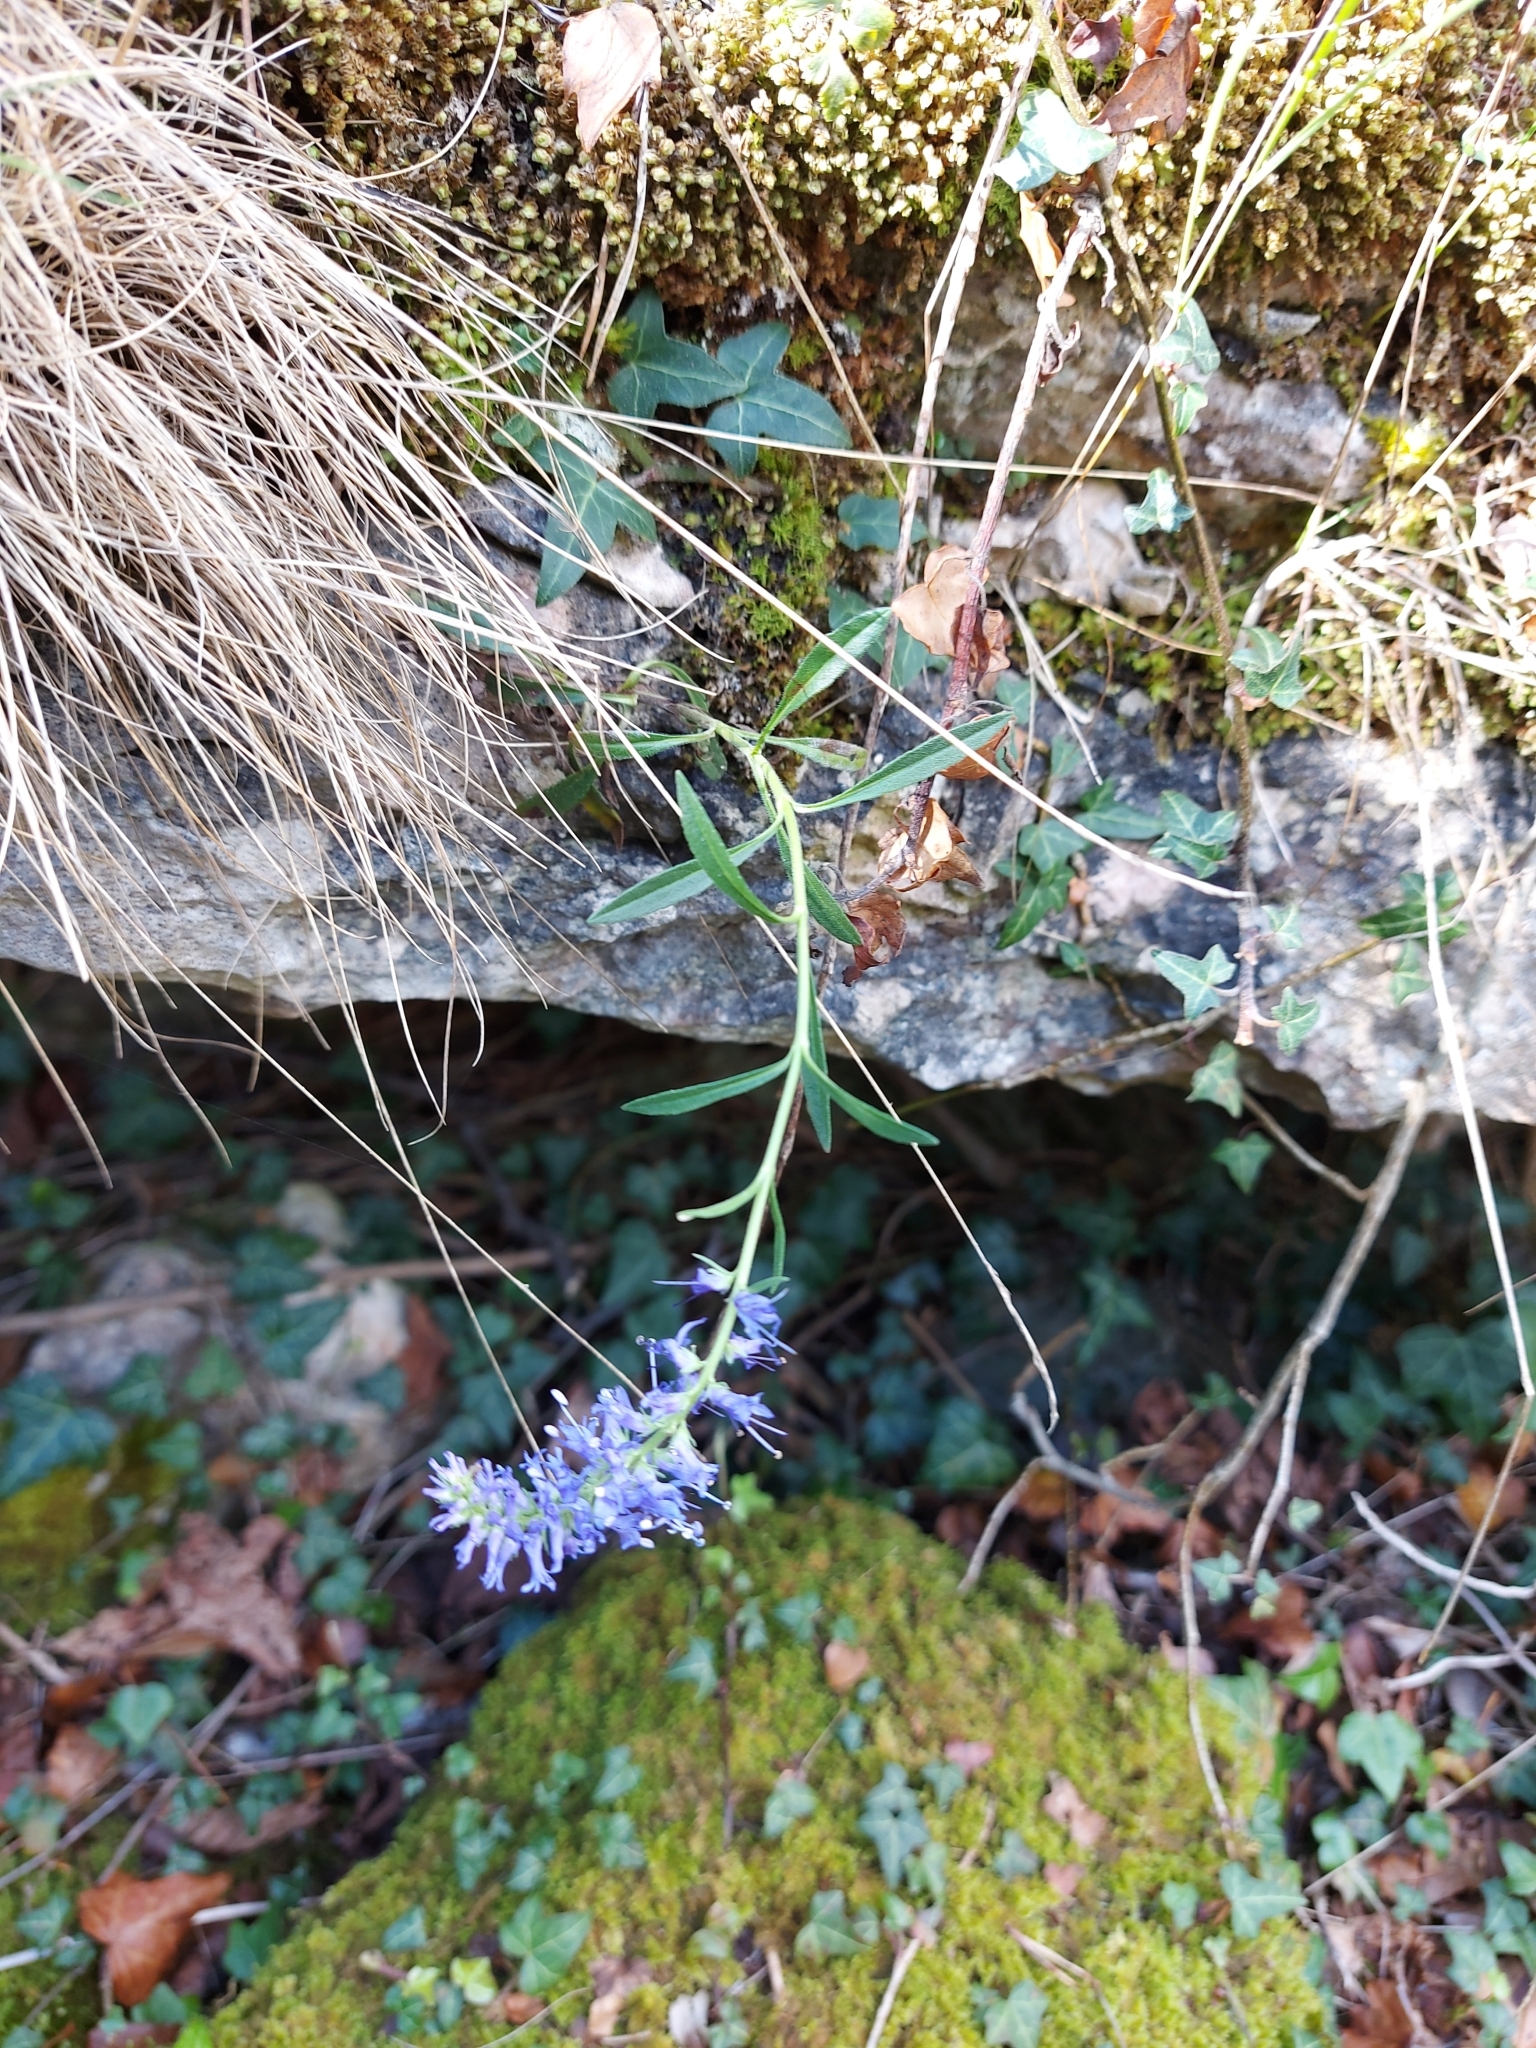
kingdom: Plantae
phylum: Tracheophyta
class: Magnoliopsida
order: Lamiales
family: Plantaginaceae
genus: Veronica
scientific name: Veronica spicata
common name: Spiked speedwell
